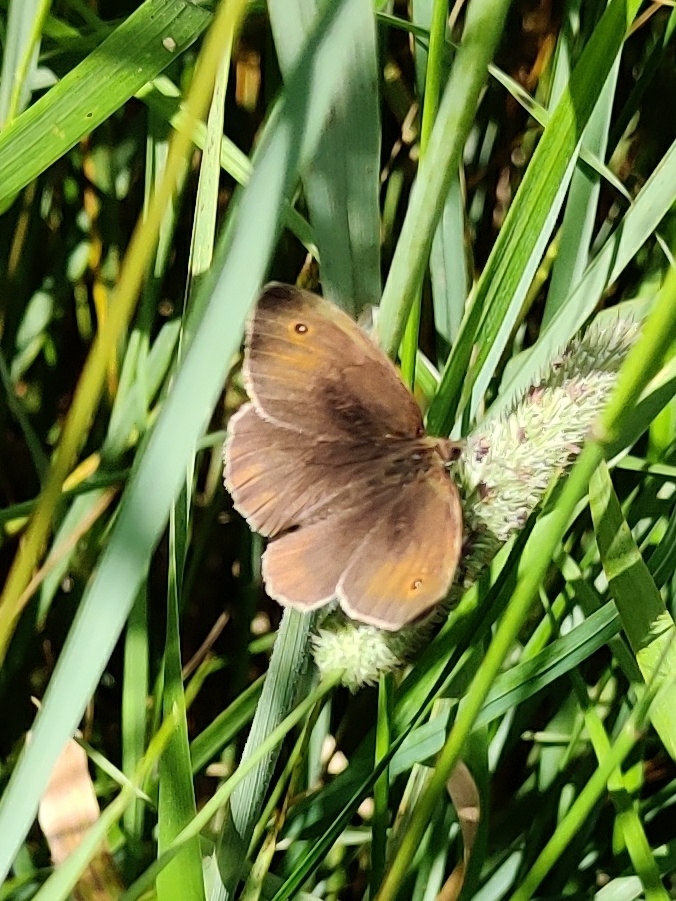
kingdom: Animalia
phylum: Arthropoda
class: Insecta
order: Lepidoptera
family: Nymphalidae
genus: Maniola
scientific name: Maniola jurtina
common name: Meadow brown
